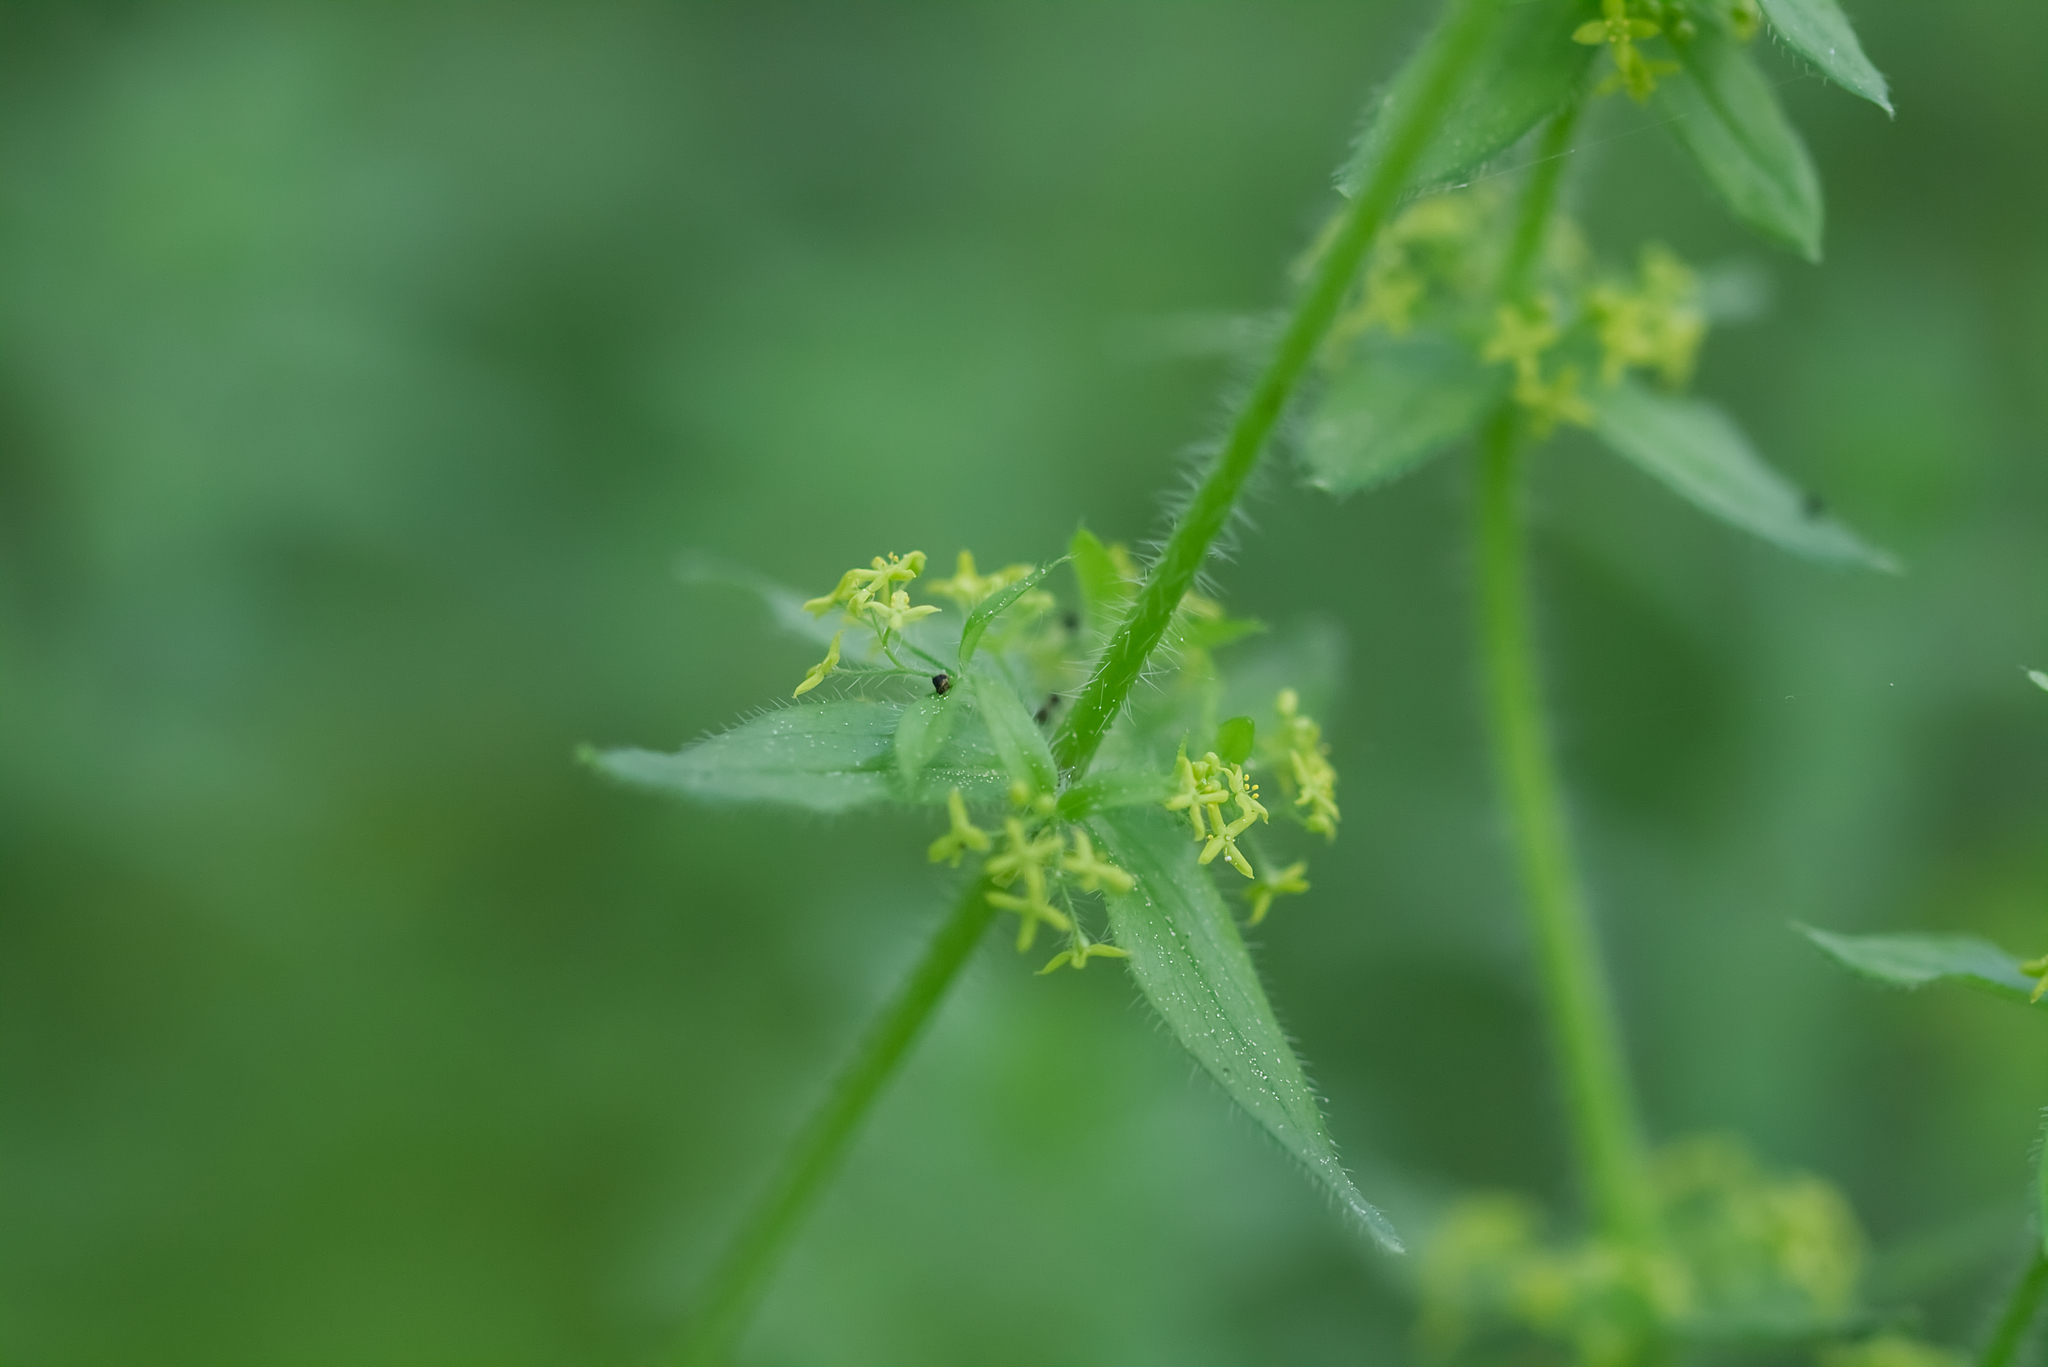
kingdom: Plantae
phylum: Tracheophyta
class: Magnoliopsida
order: Gentianales
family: Rubiaceae
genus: Cruciata
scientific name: Cruciata laevipes
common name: Crosswort
